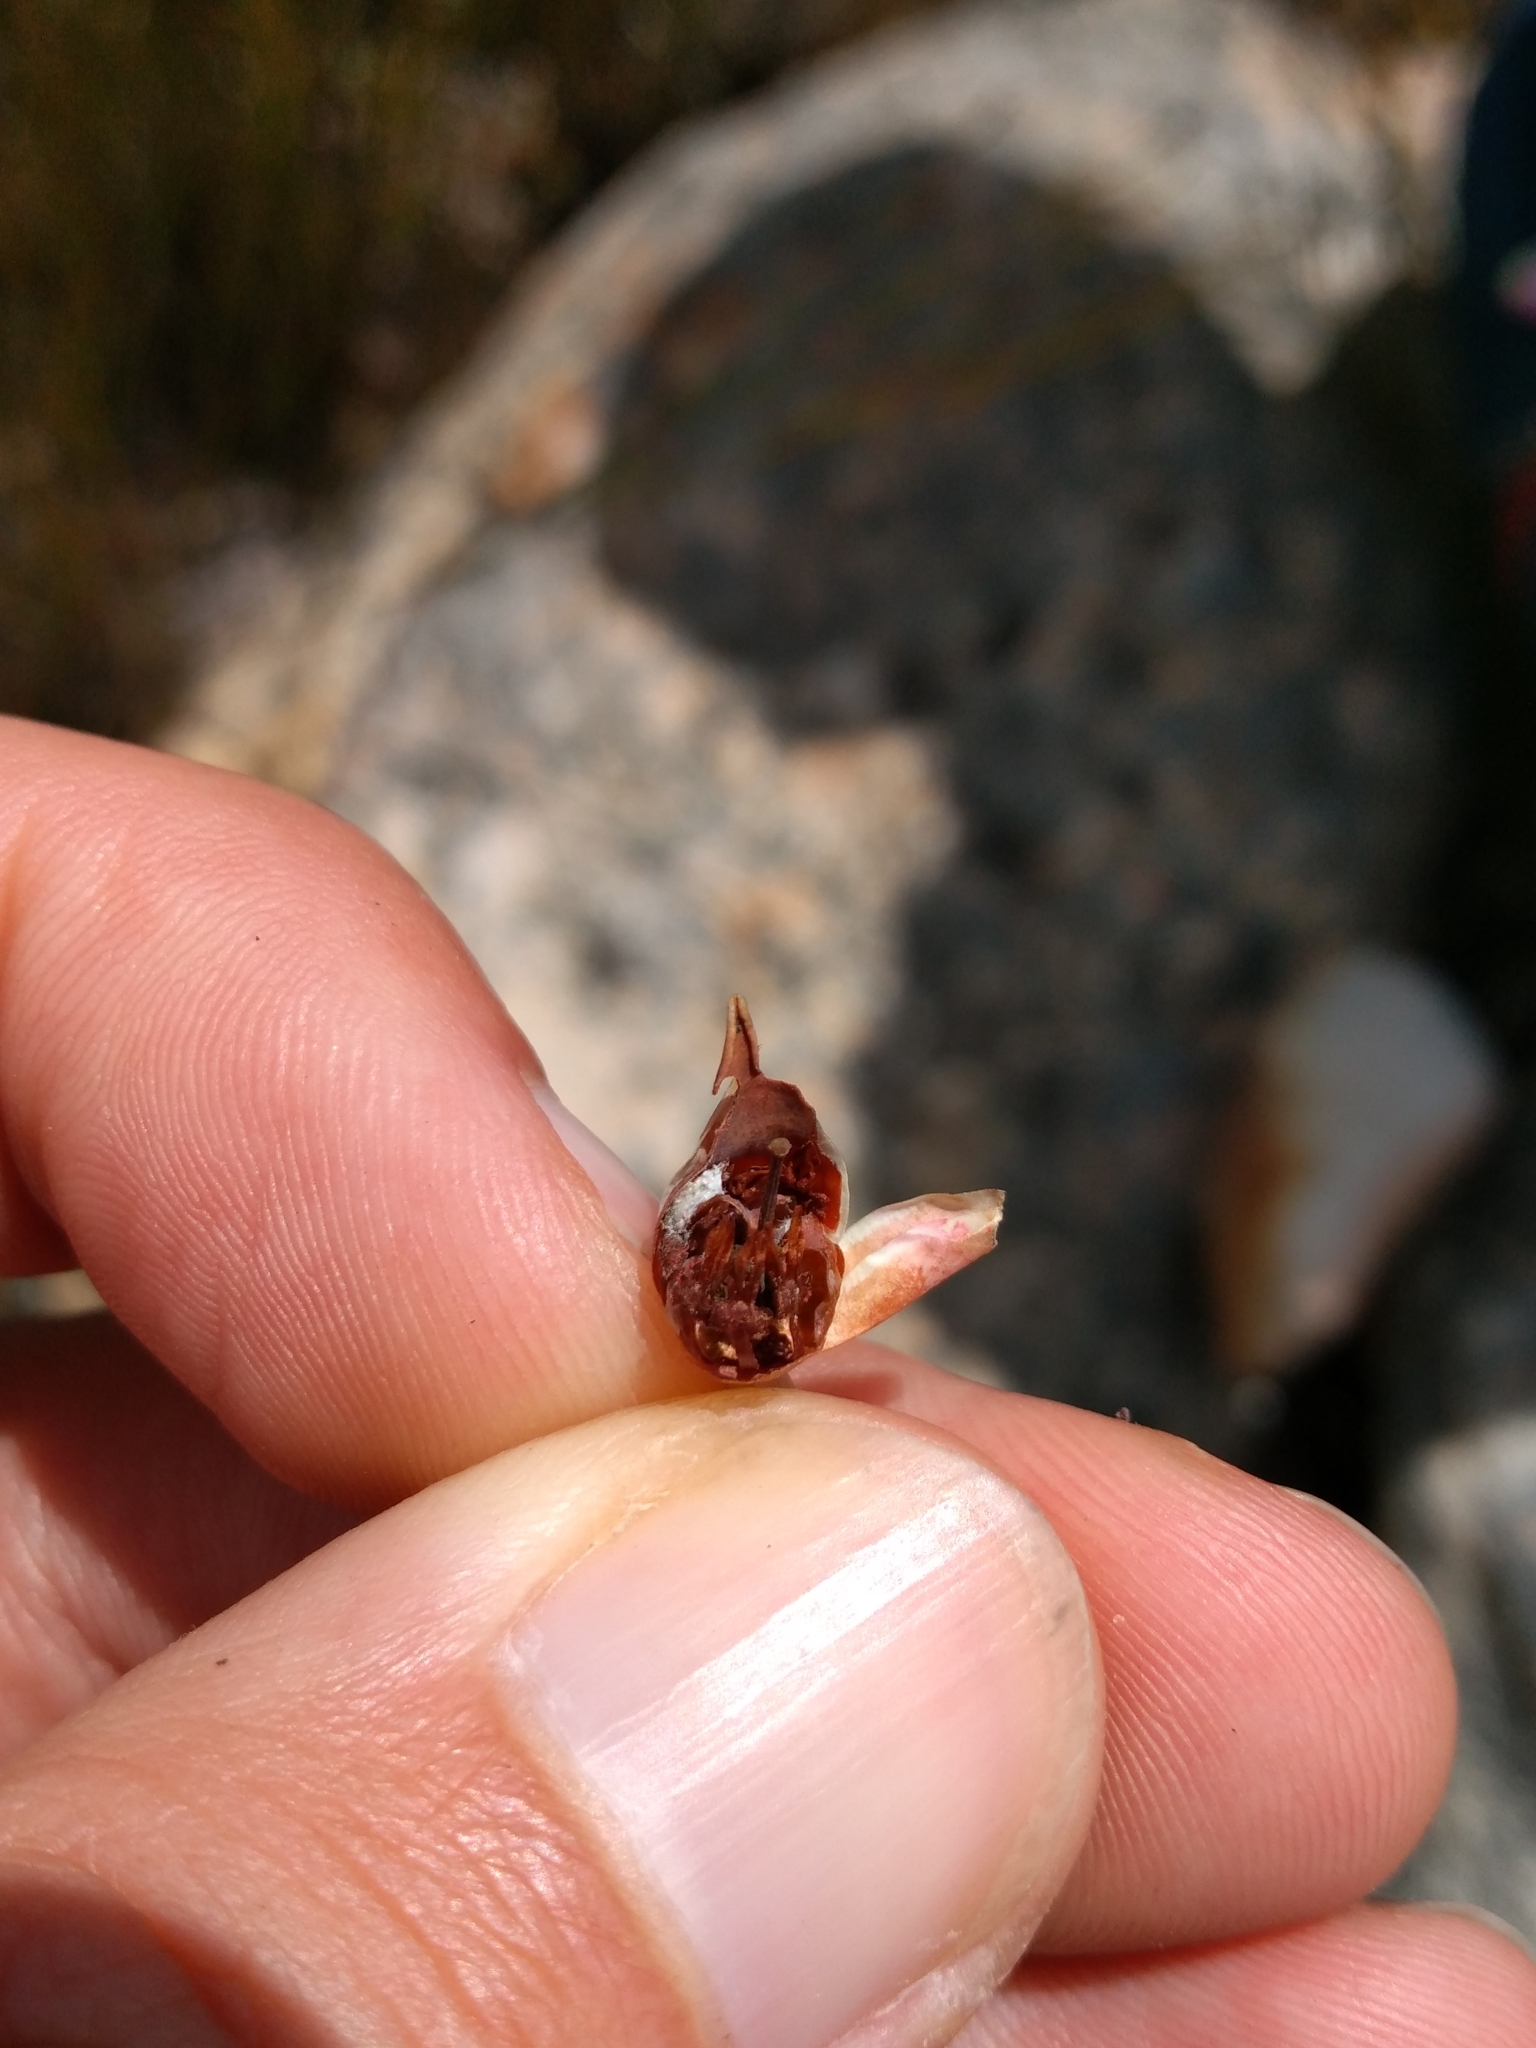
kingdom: Plantae
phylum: Tracheophyta
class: Magnoliopsida
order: Ericales
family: Ericaceae
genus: Erica
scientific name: Erica glauca
